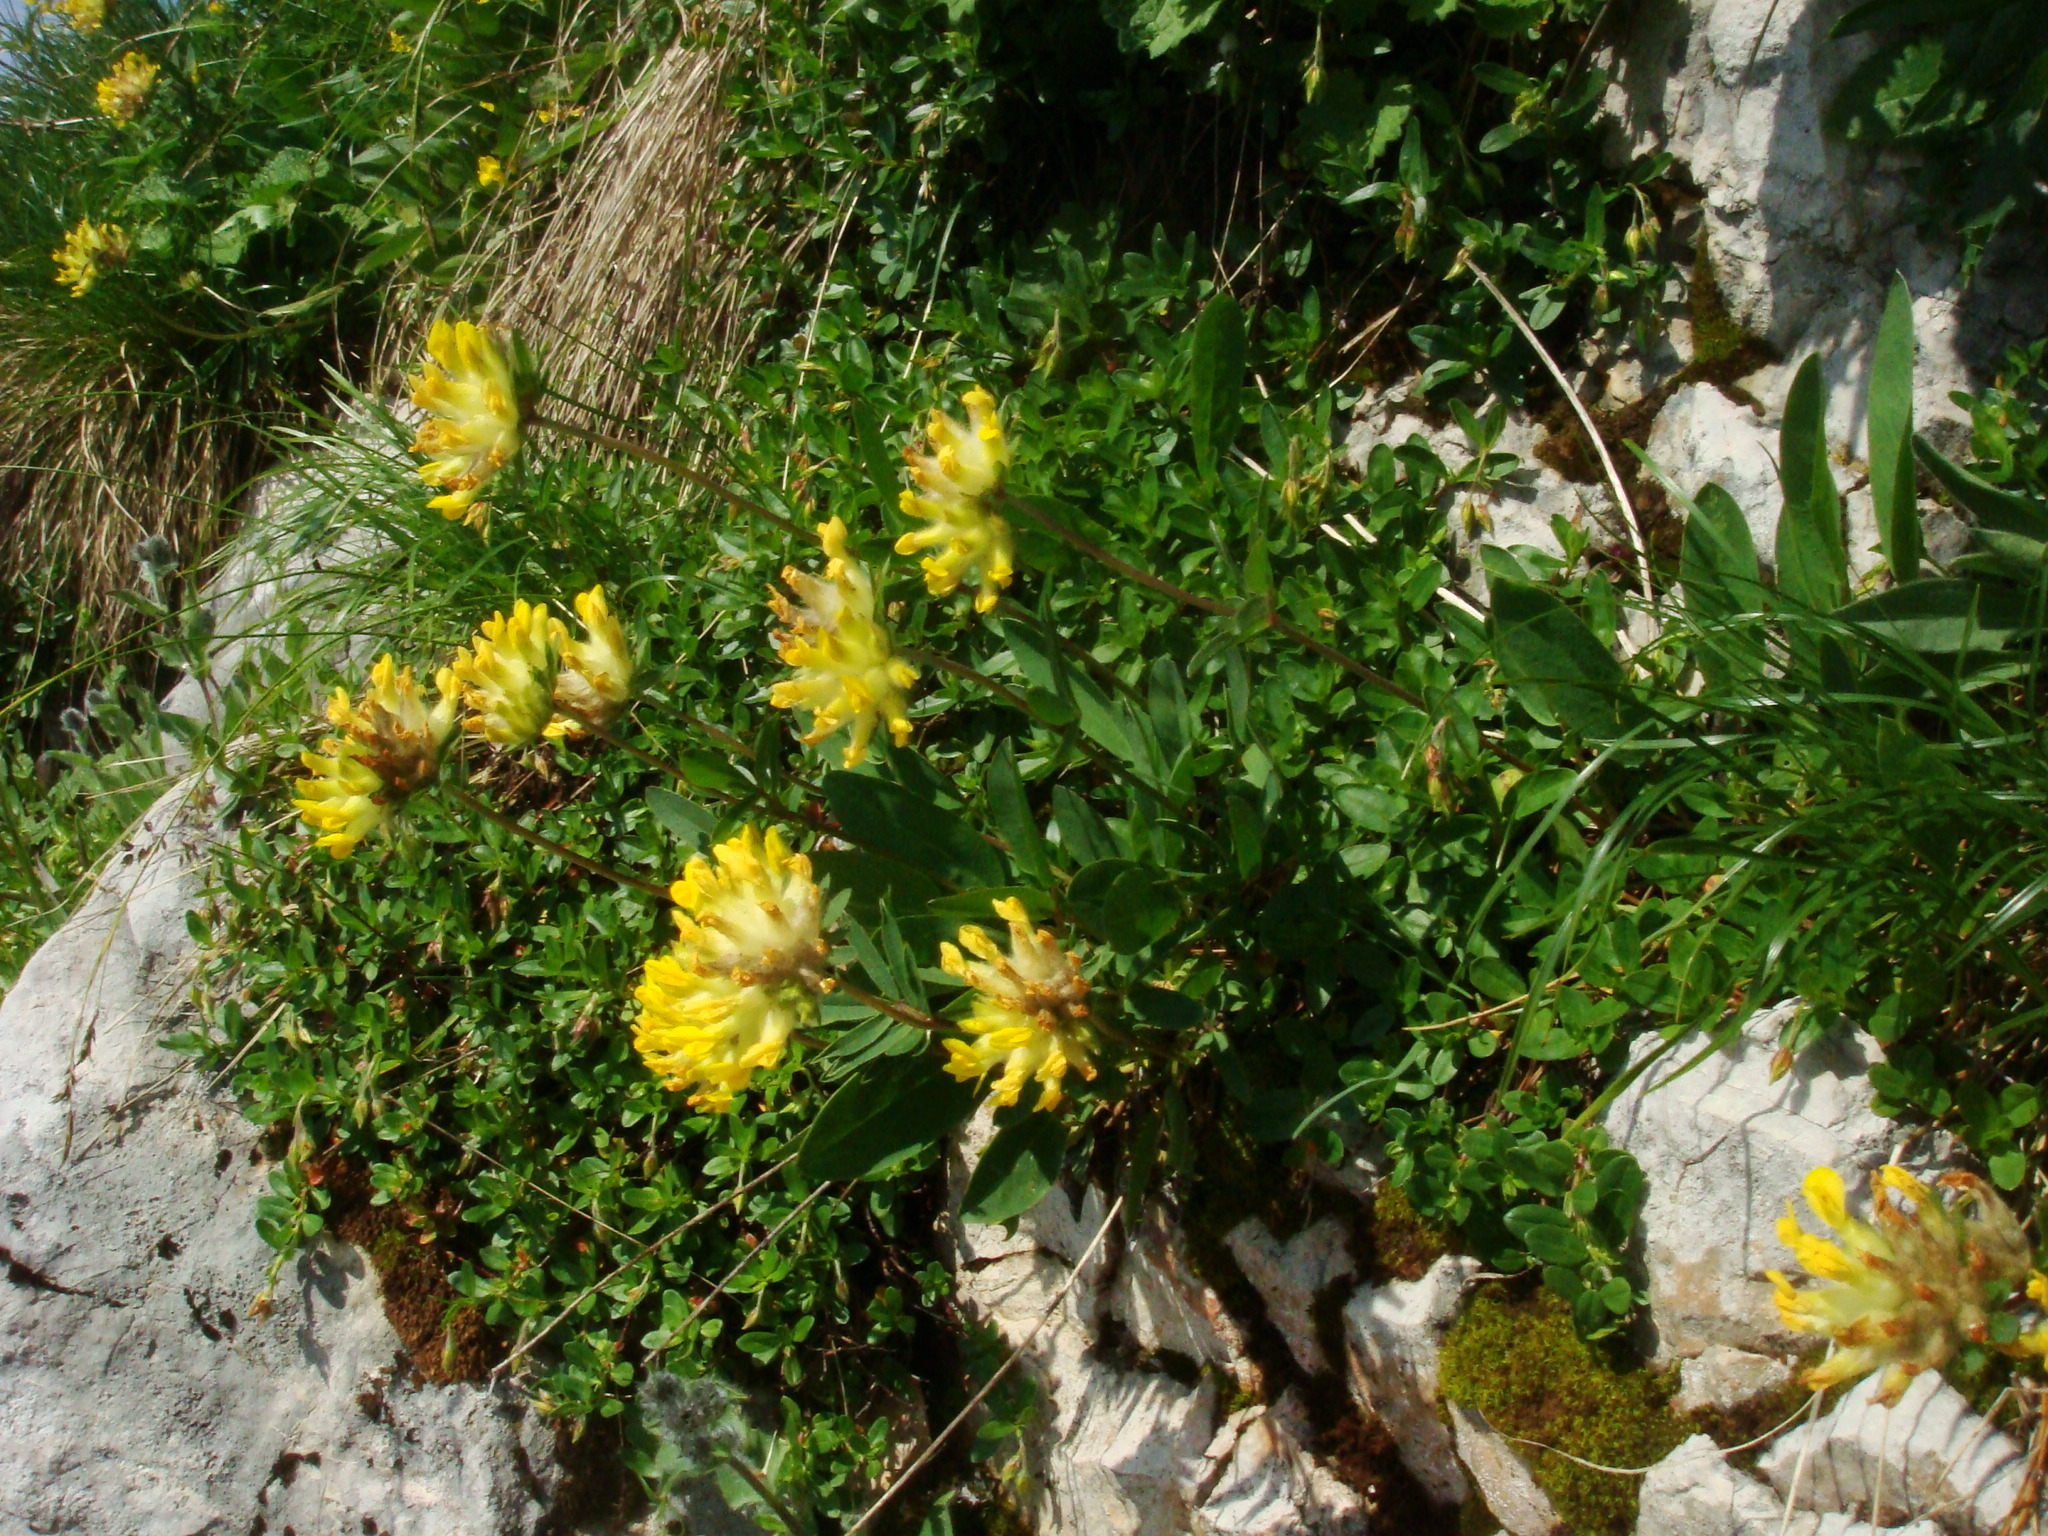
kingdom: Plantae
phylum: Tracheophyta
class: Magnoliopsida
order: Fabales
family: Fabaceae
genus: Anthyllis
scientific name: Anthyllis vulneraria
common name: Kidney vetch
